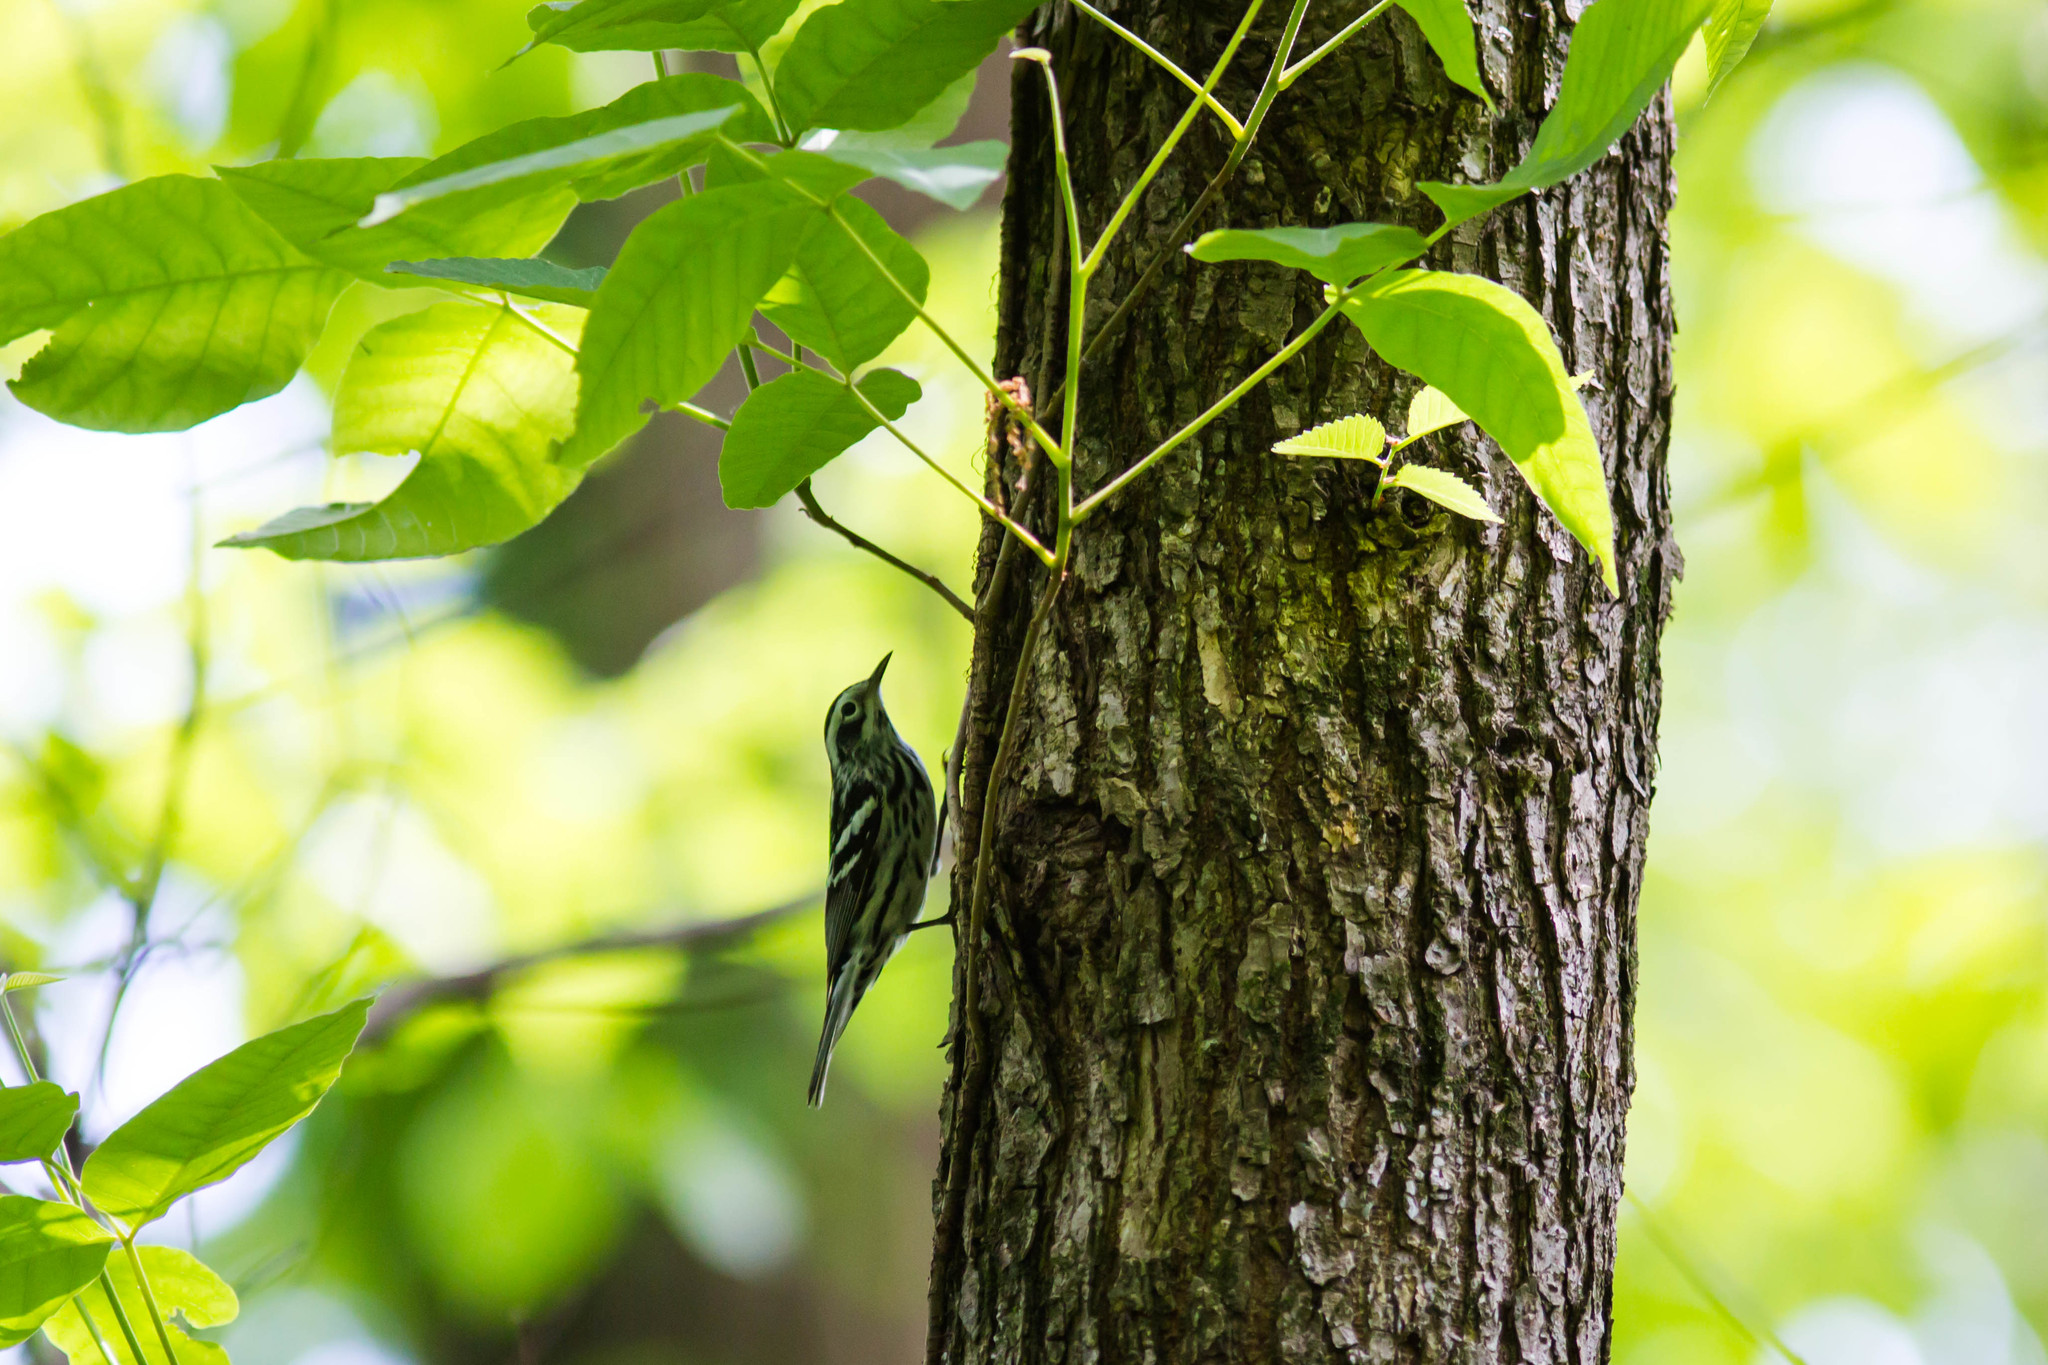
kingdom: Animalia
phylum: Chordata
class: Aves
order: Passeriformes
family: Parulidae
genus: Mniotilta
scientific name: Mniotilta varia
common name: Black-and-white warbler
